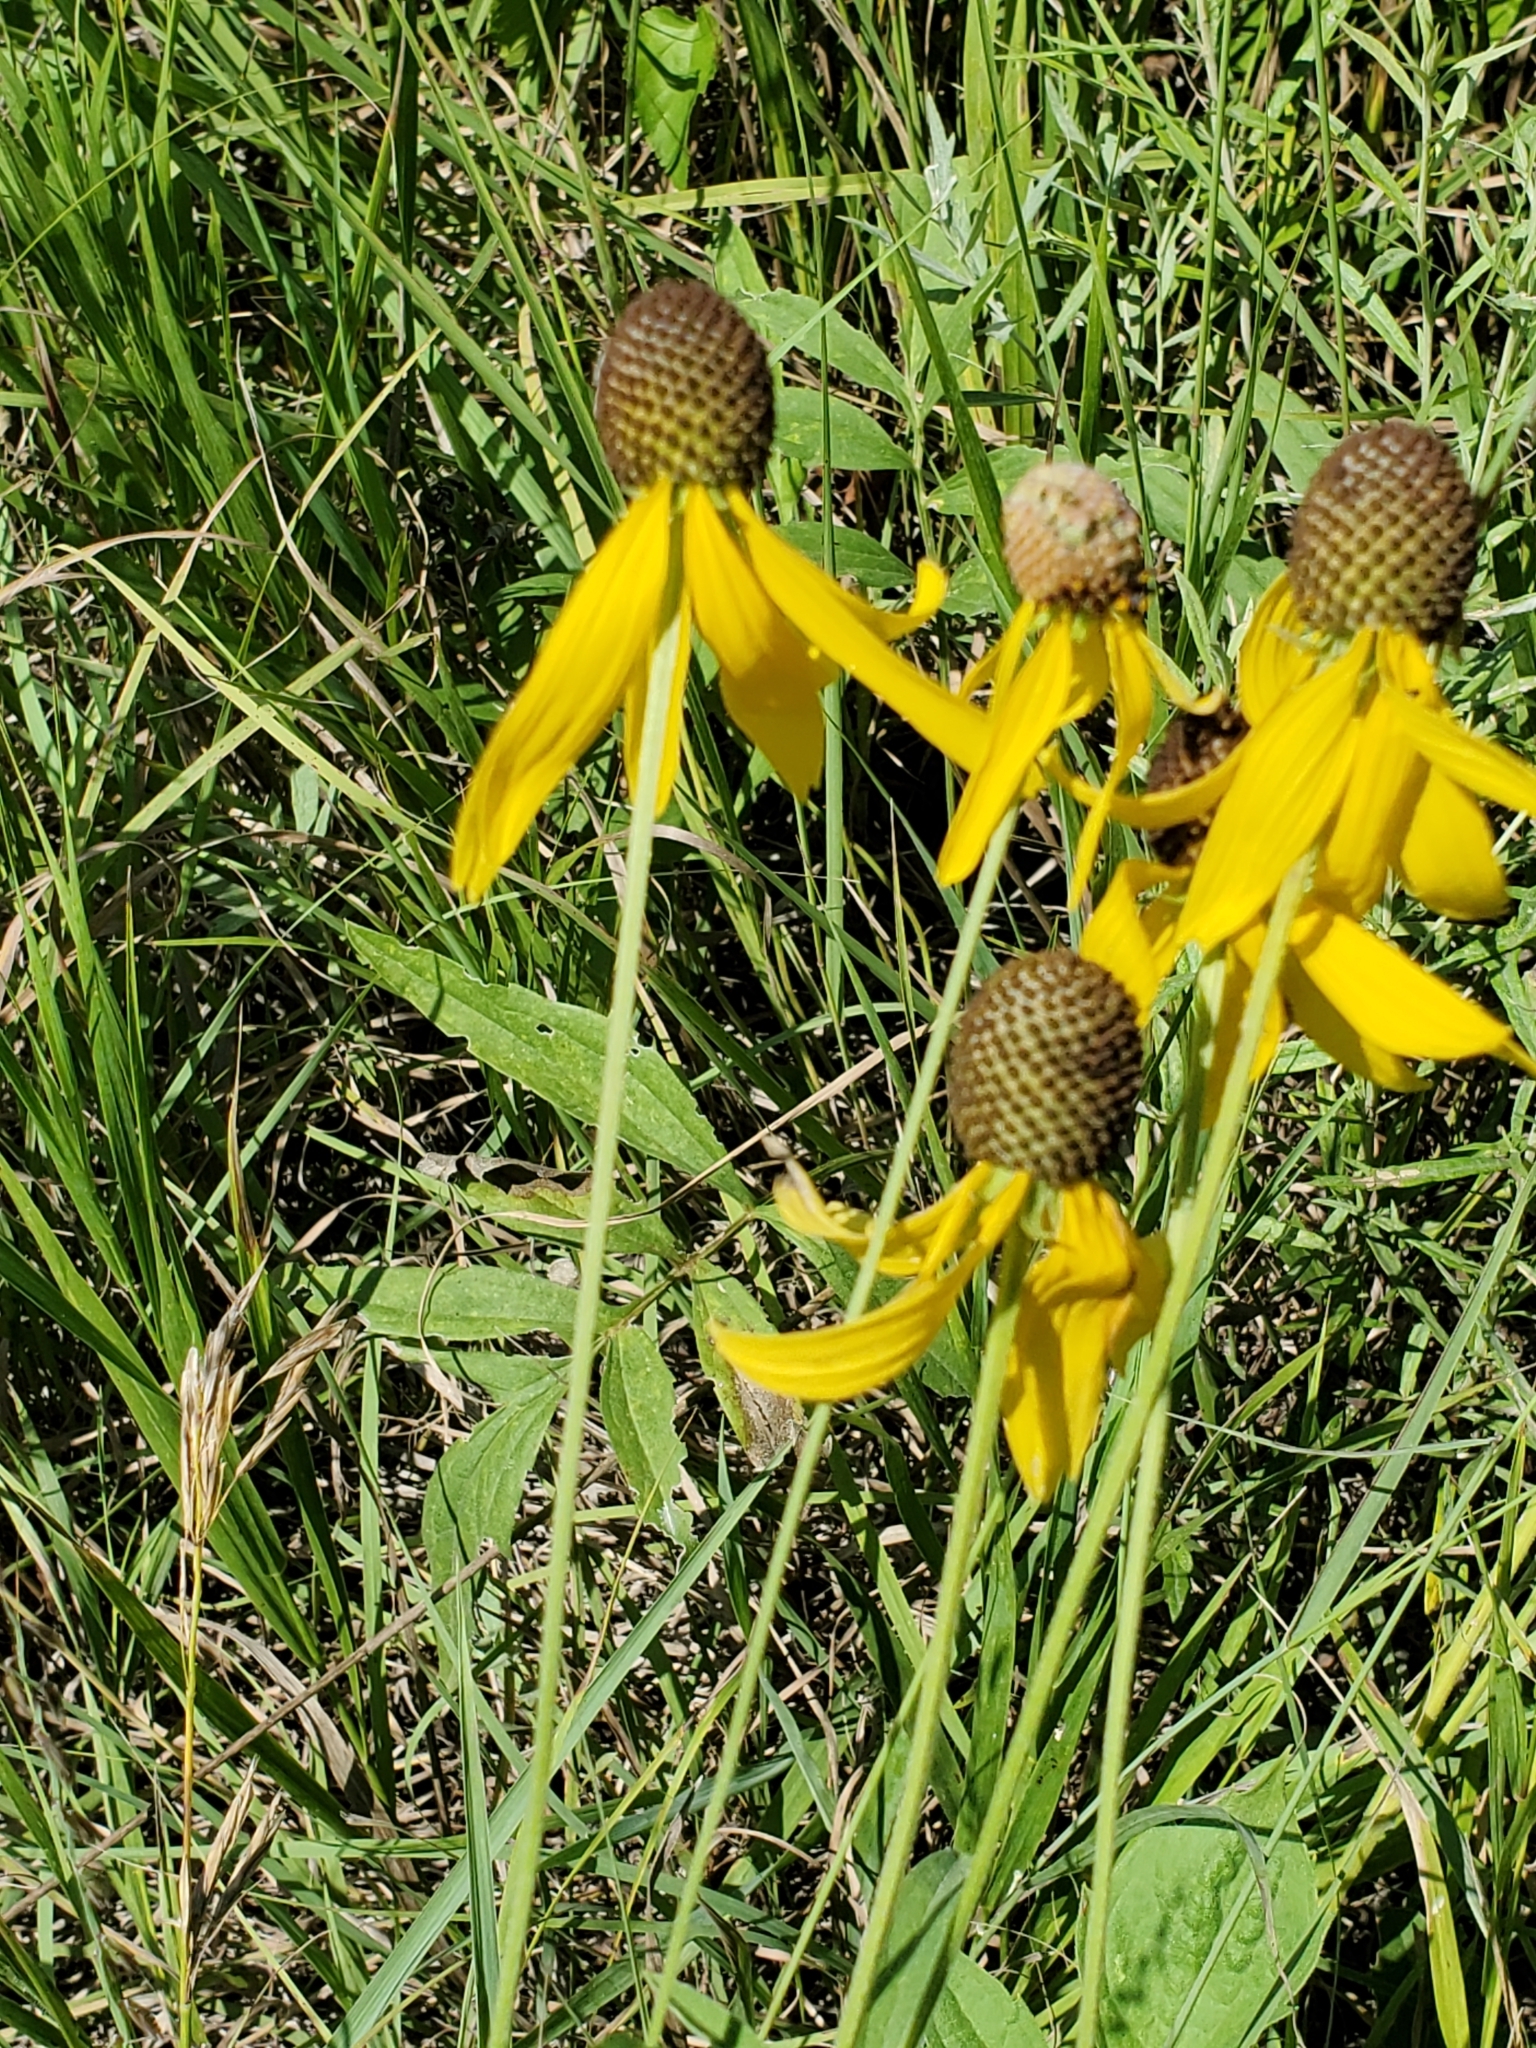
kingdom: Plantae
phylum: Tracheophyta
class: Magnoliopsida
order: Asterales
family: Asteraceae
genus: Ratibida
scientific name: Ratibida pinnata
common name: Drooping prairie-coneflower
